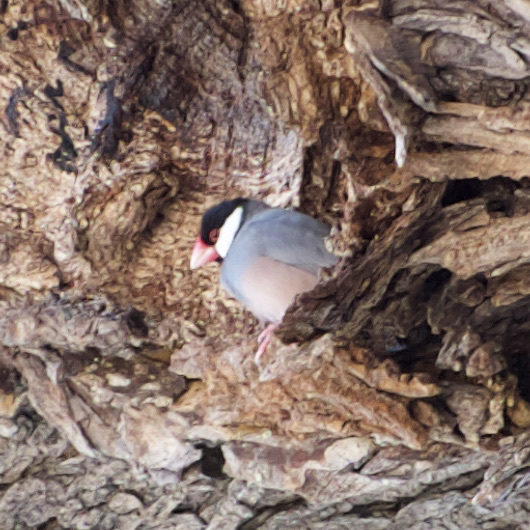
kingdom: Animalia
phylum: Chordata
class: Aves
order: Passeriformes
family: Estrildidae
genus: Lonchura
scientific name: Lonchura oryzivora
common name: Java sparrow
